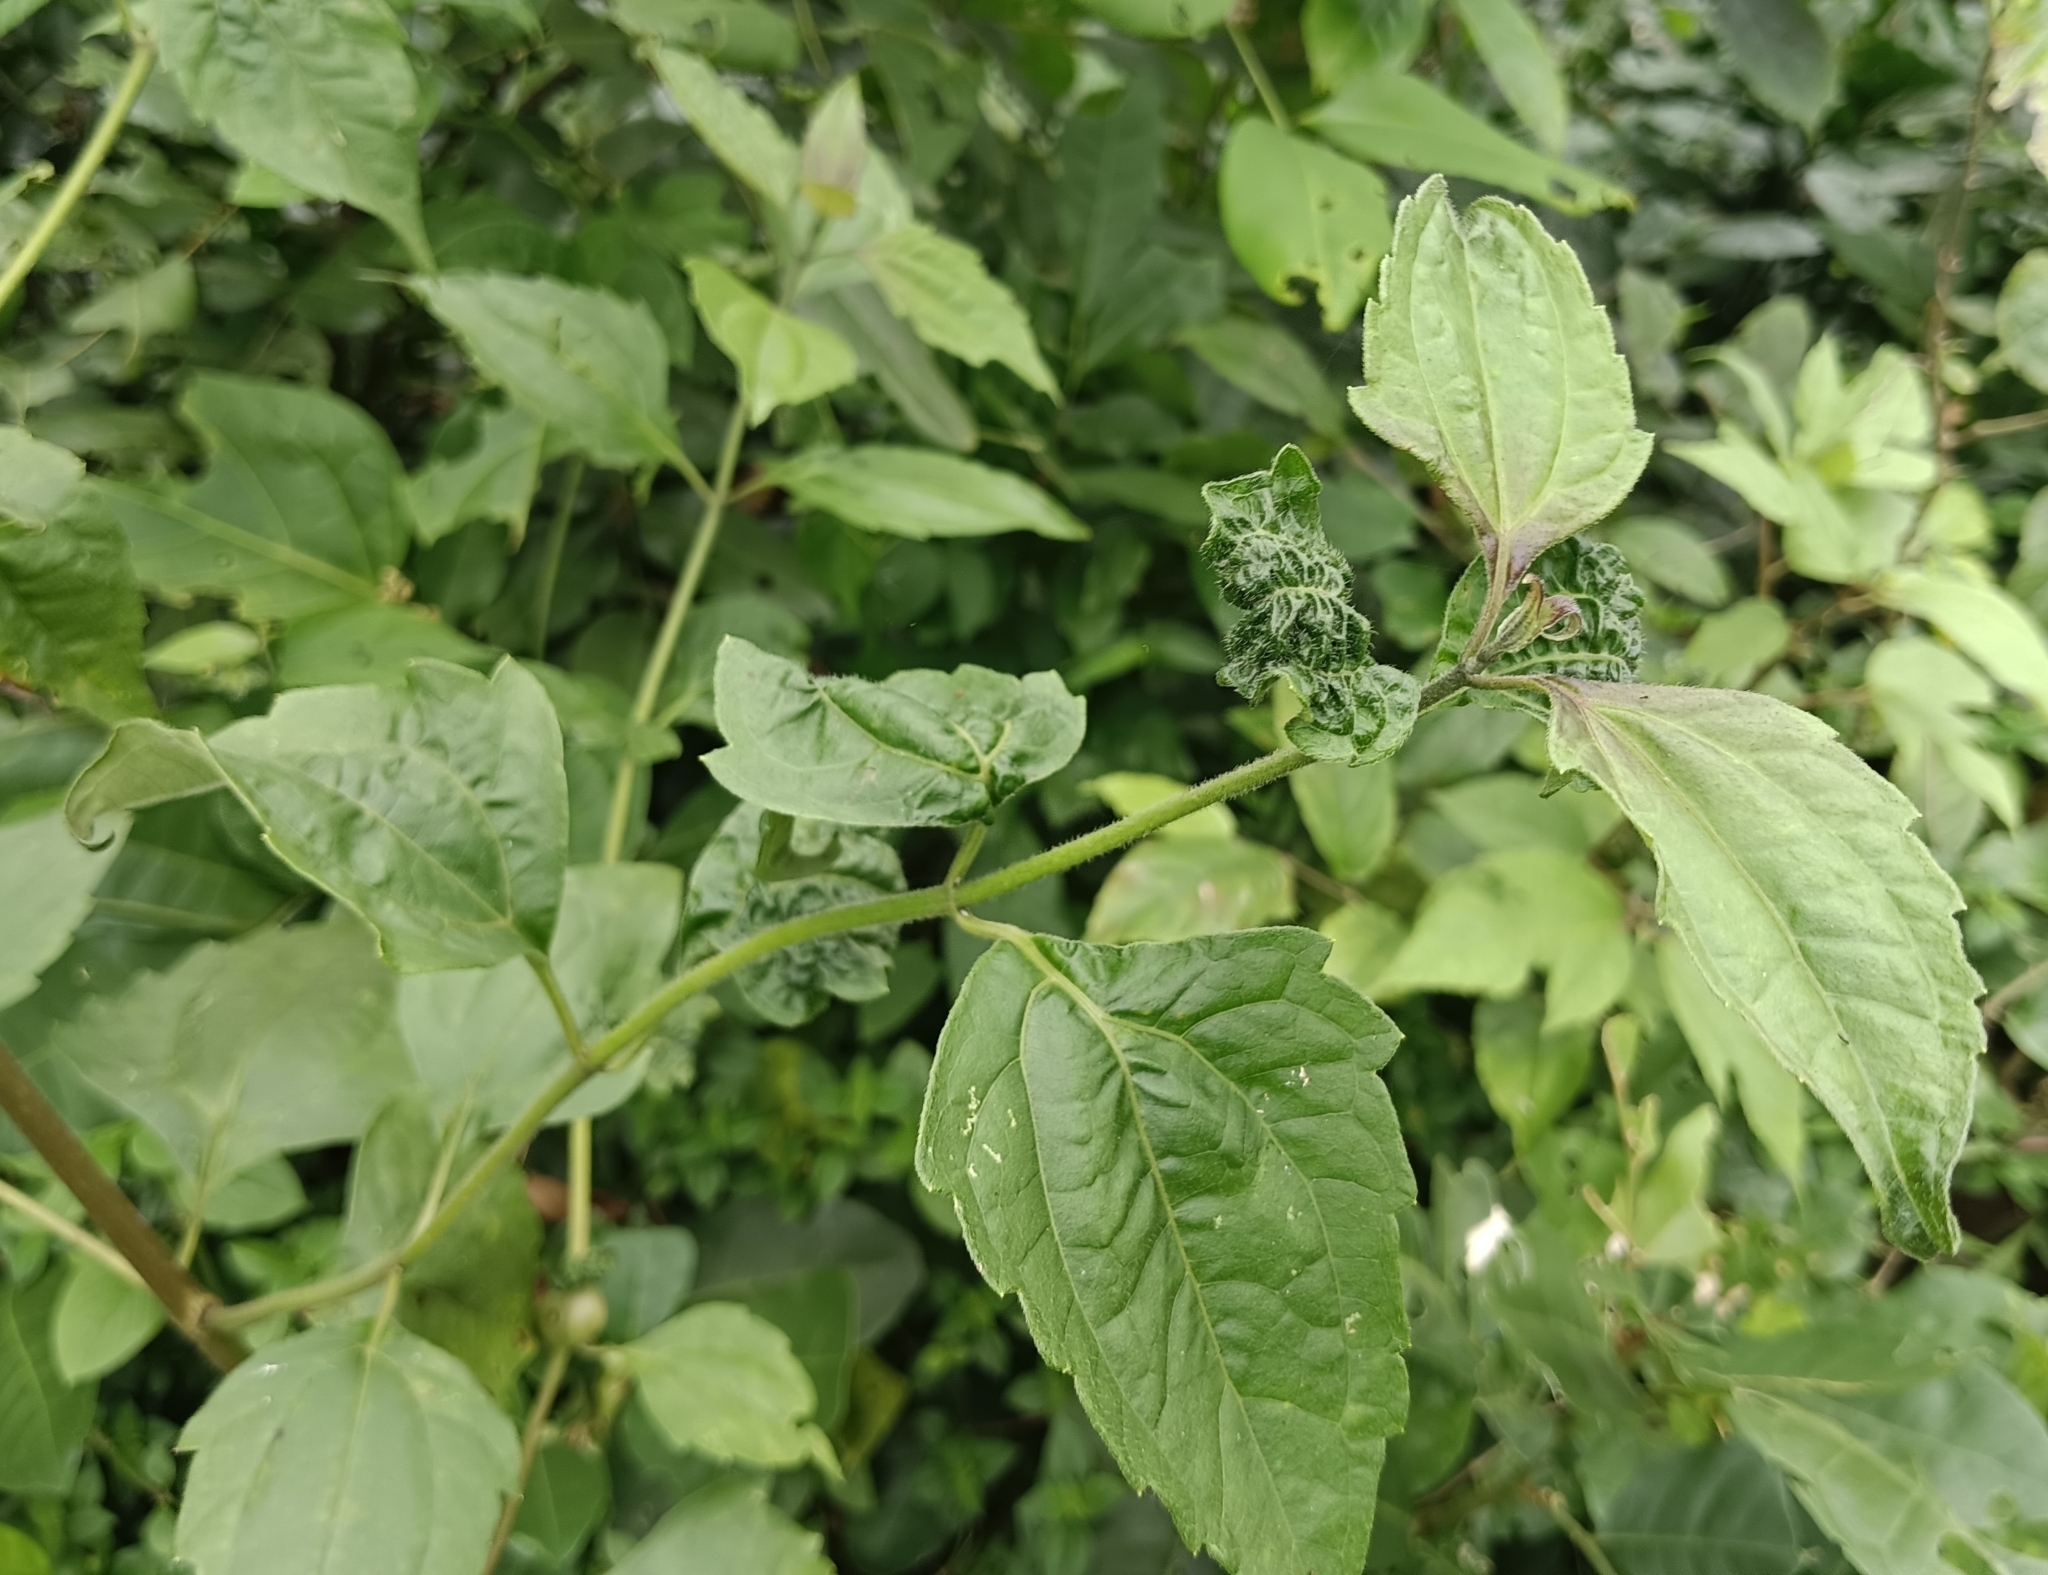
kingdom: Plantae
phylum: Tracheophyta
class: Magnoliopsida
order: Asterales
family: Asteraceae
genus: Chromolaena
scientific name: Chromolaena odorata
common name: Siamweed
